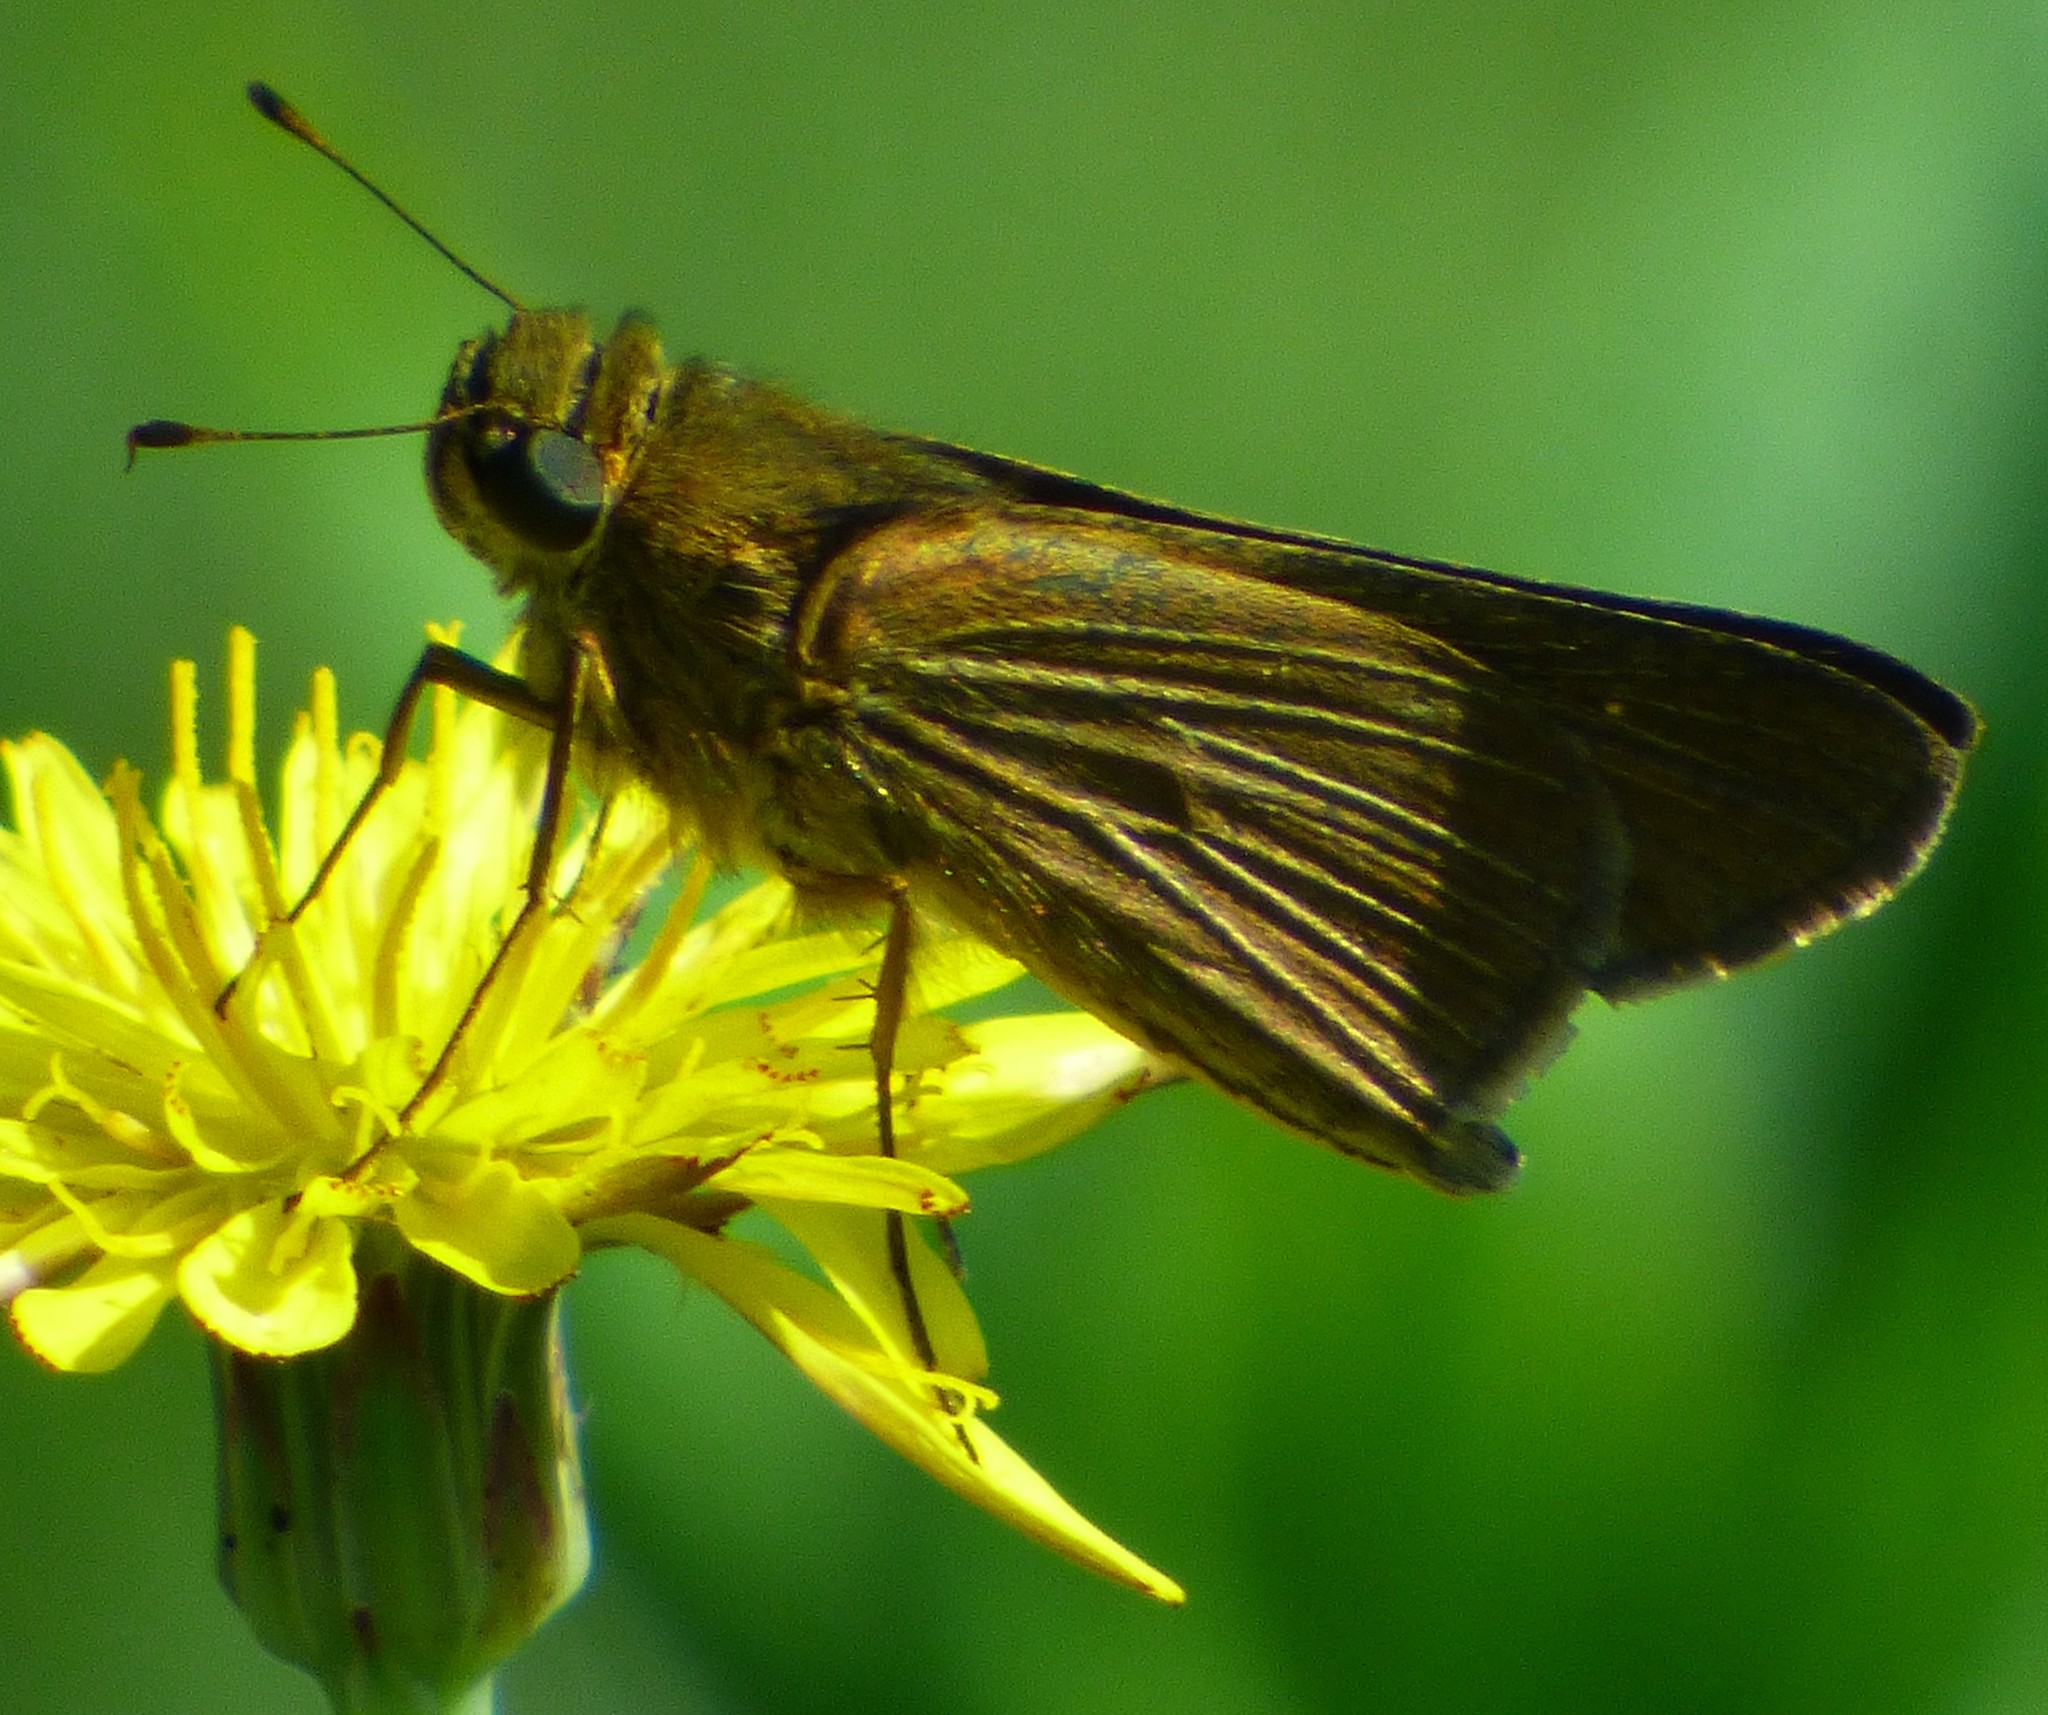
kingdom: Animalia
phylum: Arthropoda
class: Insecta
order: Lepidoptera
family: Hesperiidae
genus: Panoquina
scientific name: Panoquina ocola
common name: Ocola skipper
